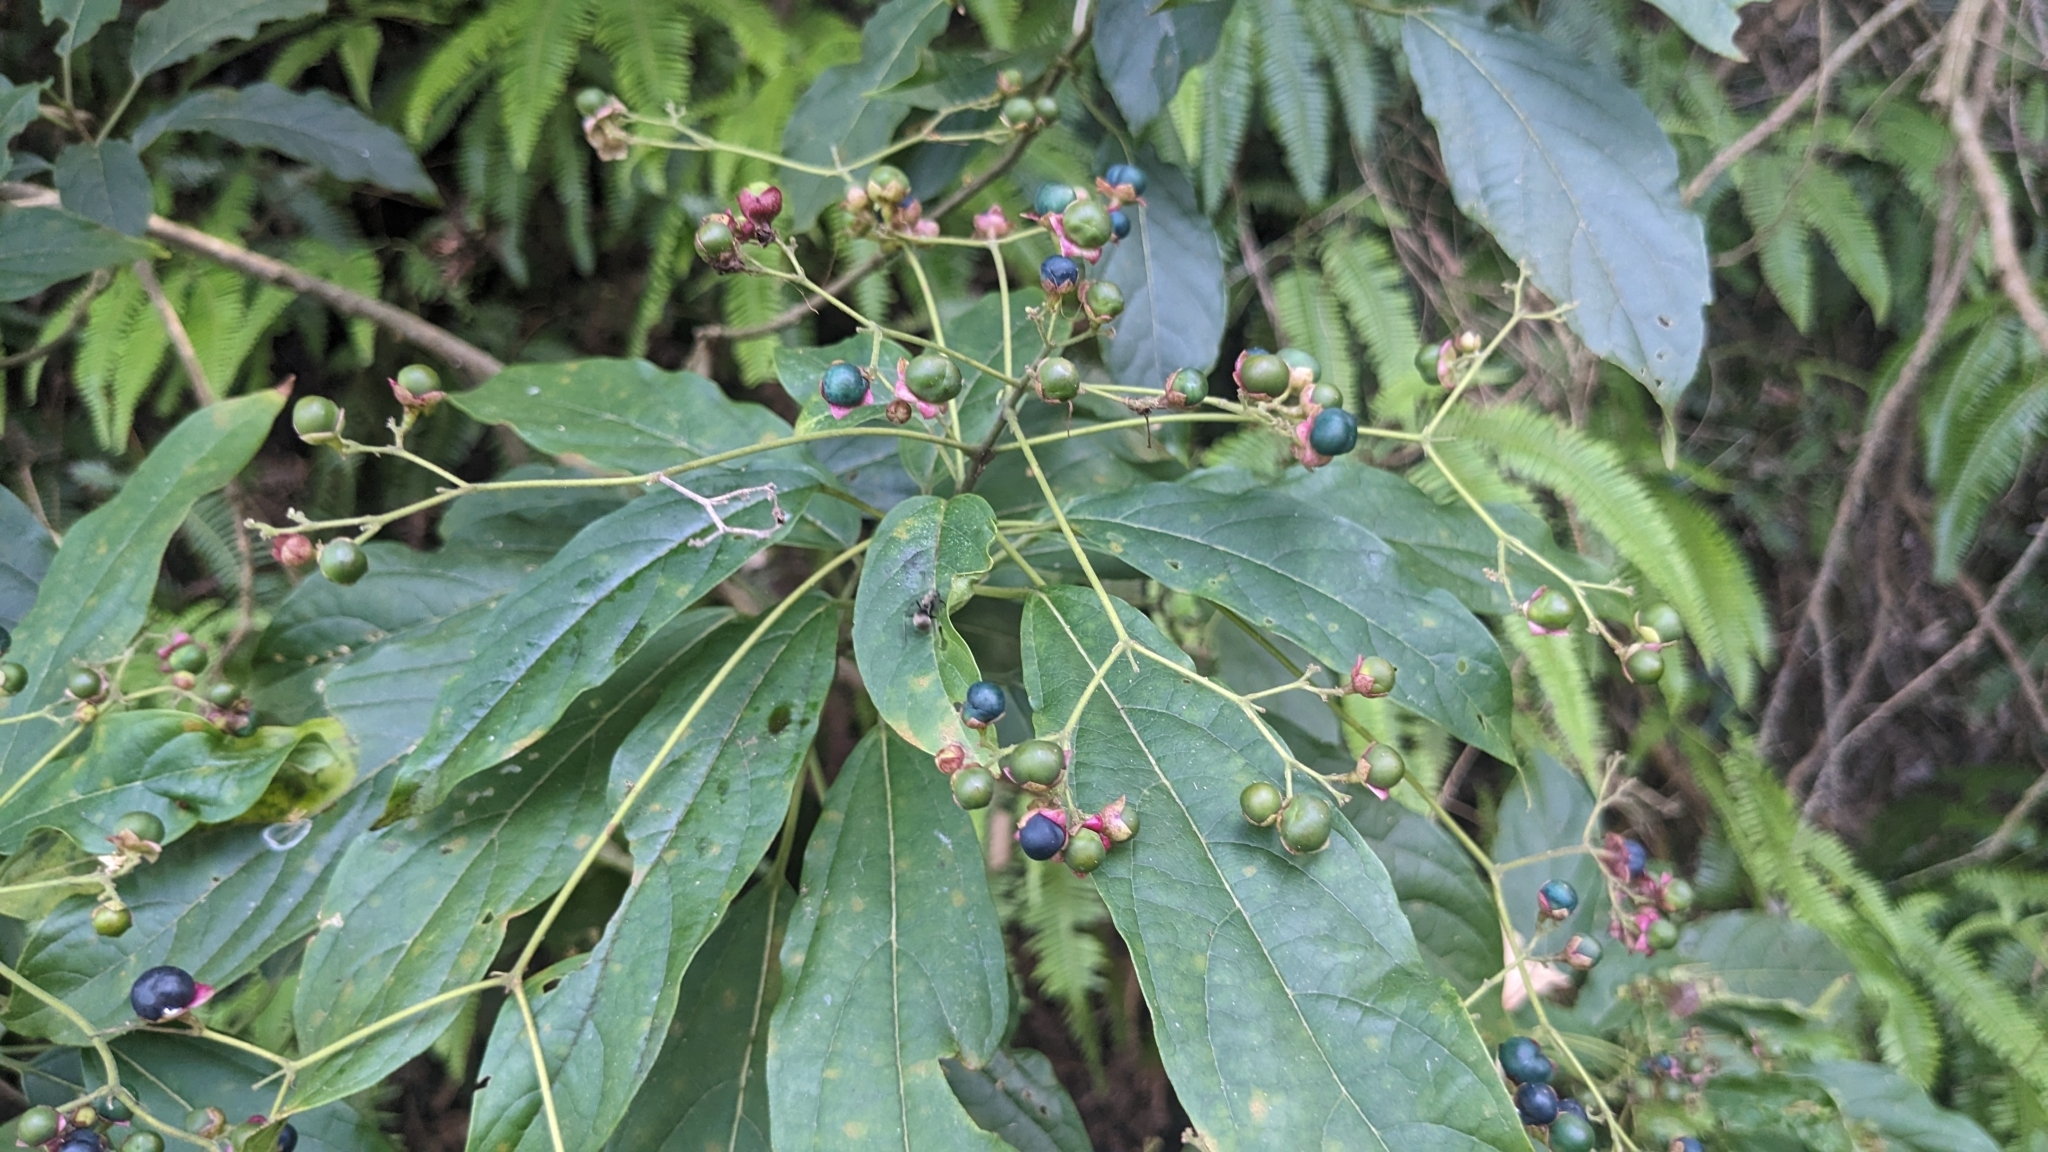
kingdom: Plantae
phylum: Tracheophyta
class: Magnoliopsida
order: Lamiales
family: Lamiaceae
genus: Clerodendrum
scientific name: Clerodendrum cyrtophyllum
